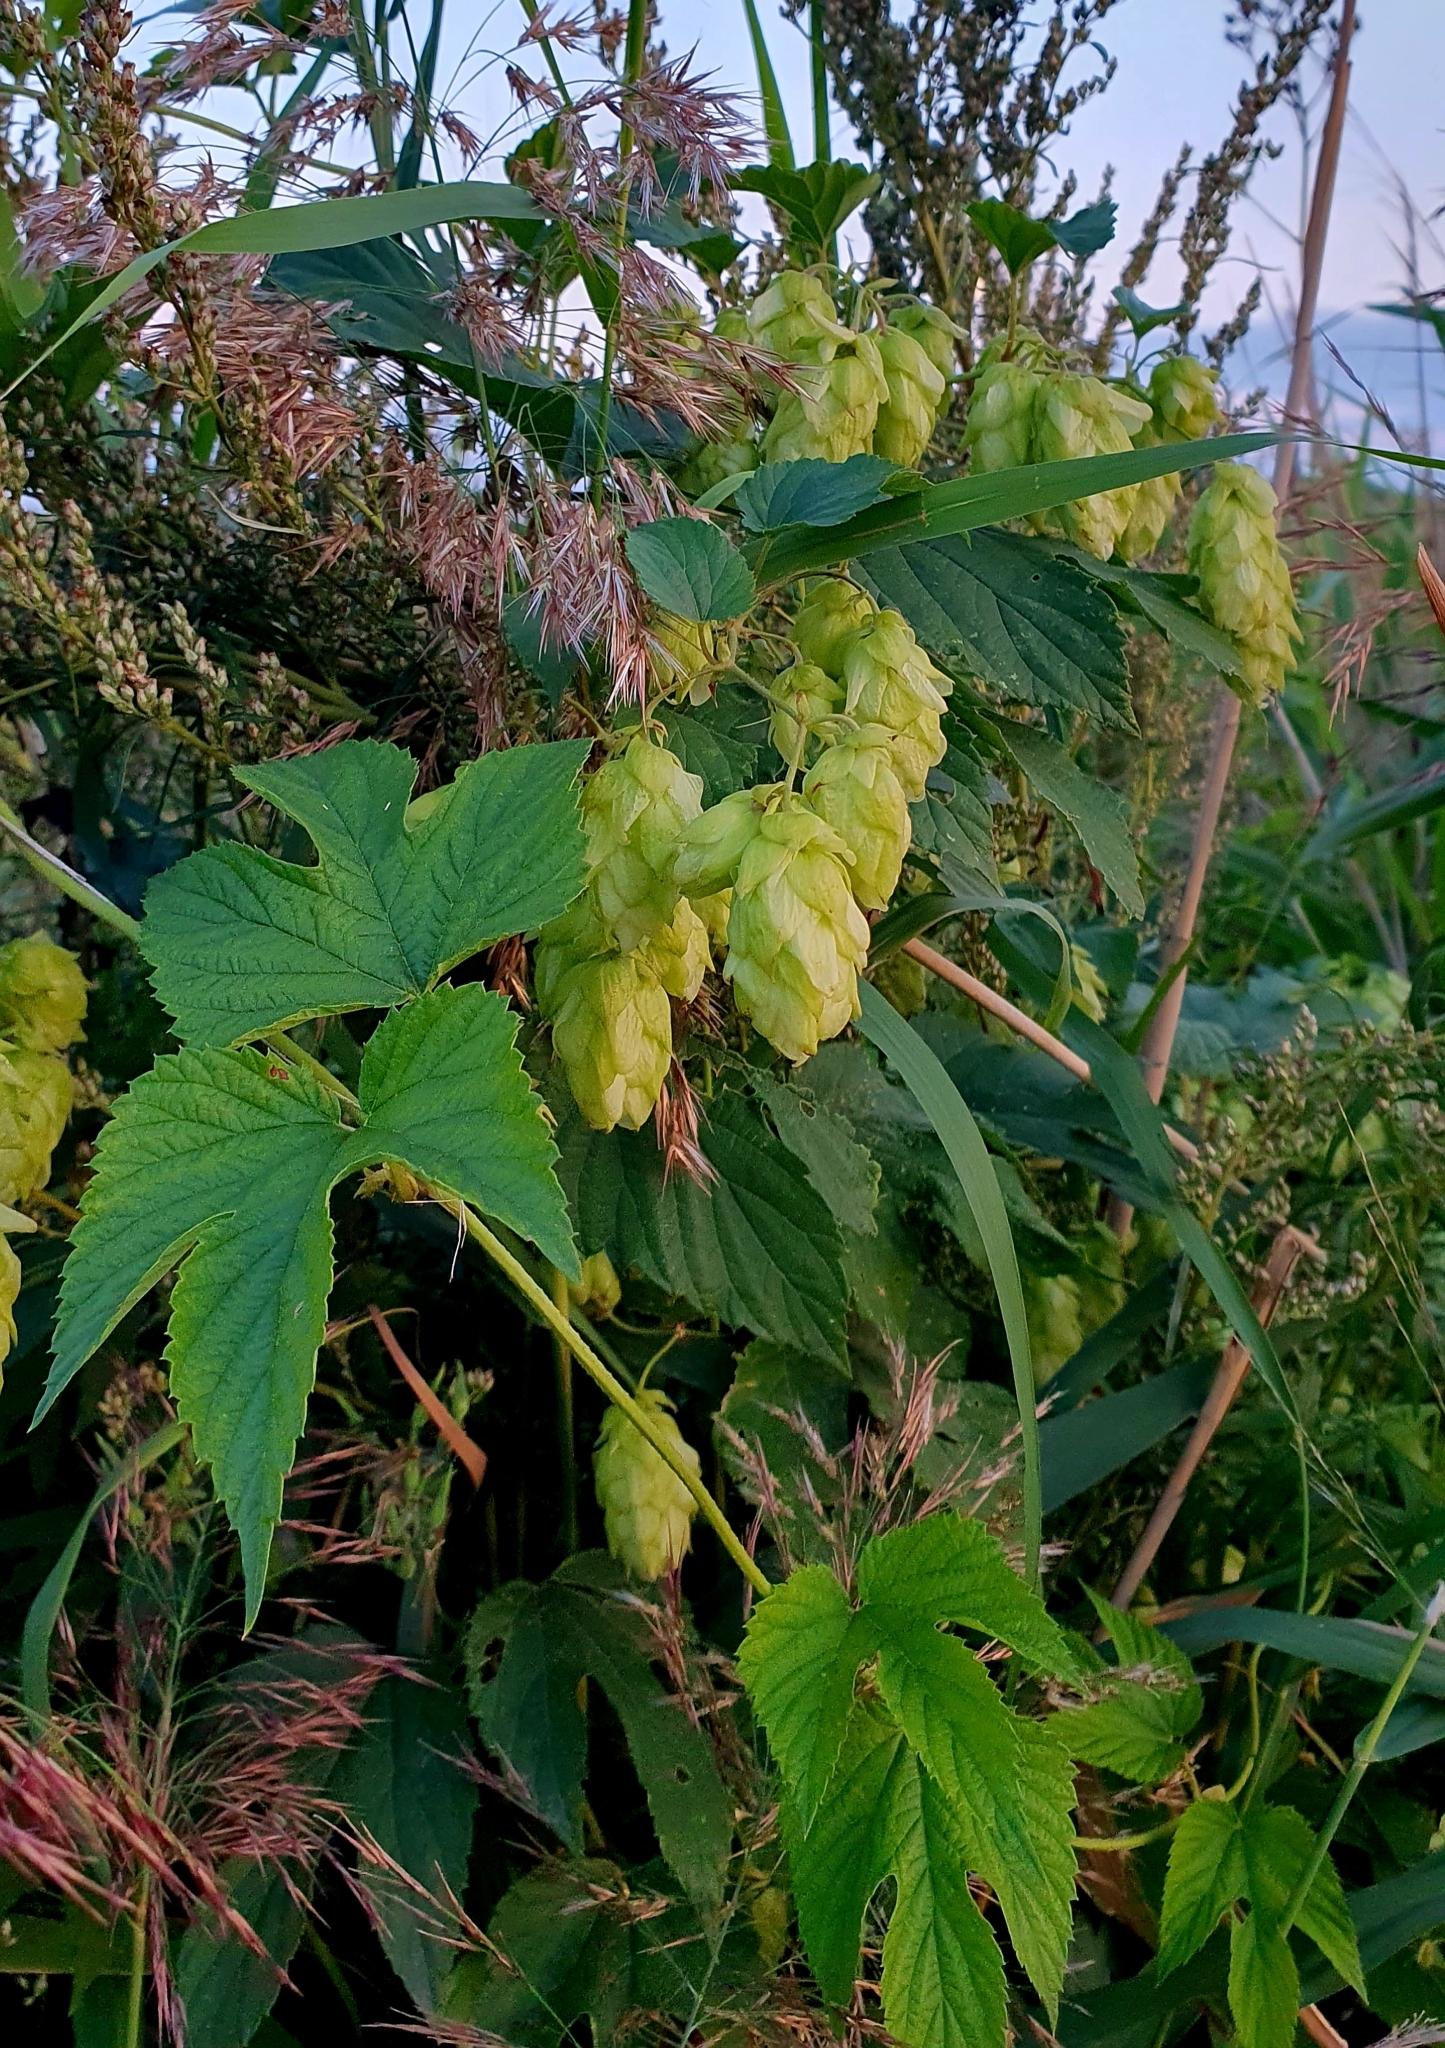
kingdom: Plantae
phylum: Tracheophyta
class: Magnoliopsida
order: Rosales
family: Cannabaceae
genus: Humulus
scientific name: Humulus lupulus
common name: Hop
